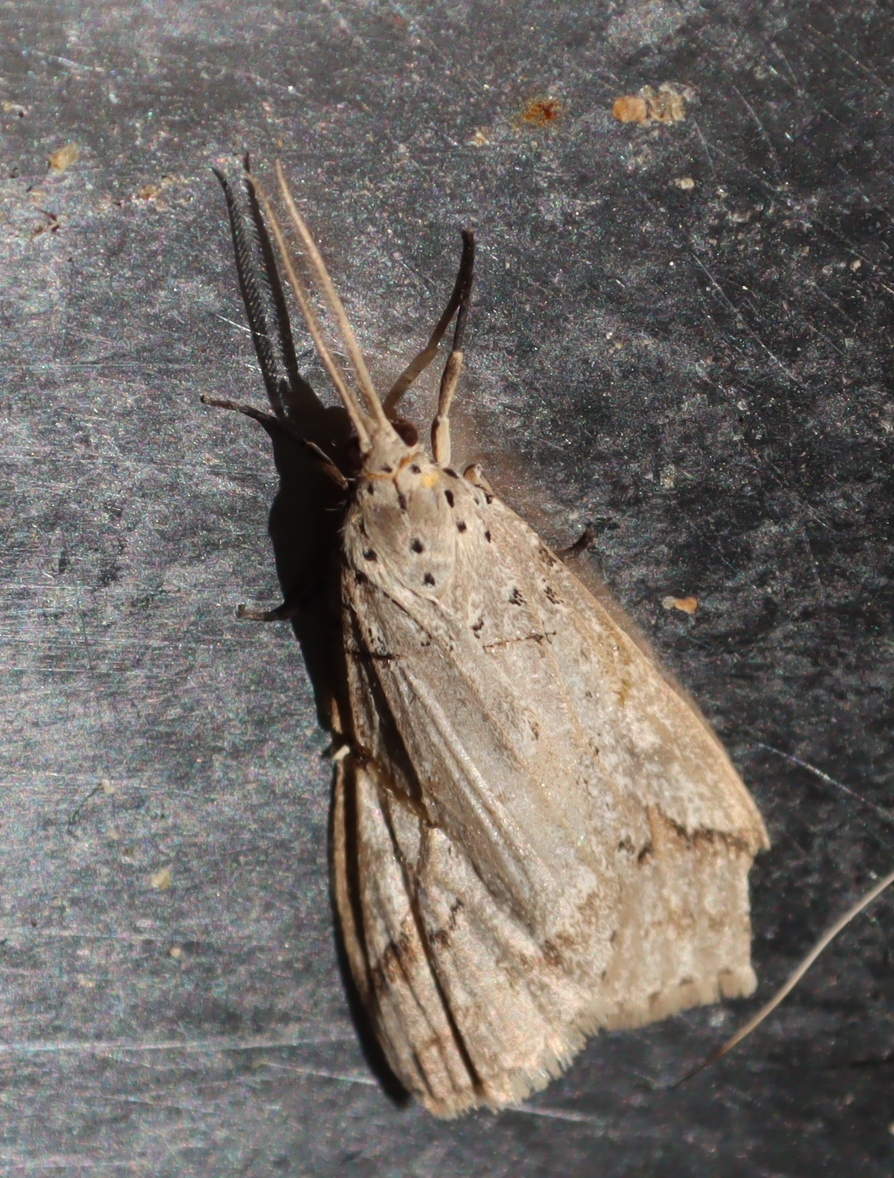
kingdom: Animalia
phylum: Arthropoda
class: Insecta
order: Lepidoptera
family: Erebidae
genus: Galtara
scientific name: Galtara rostrata
